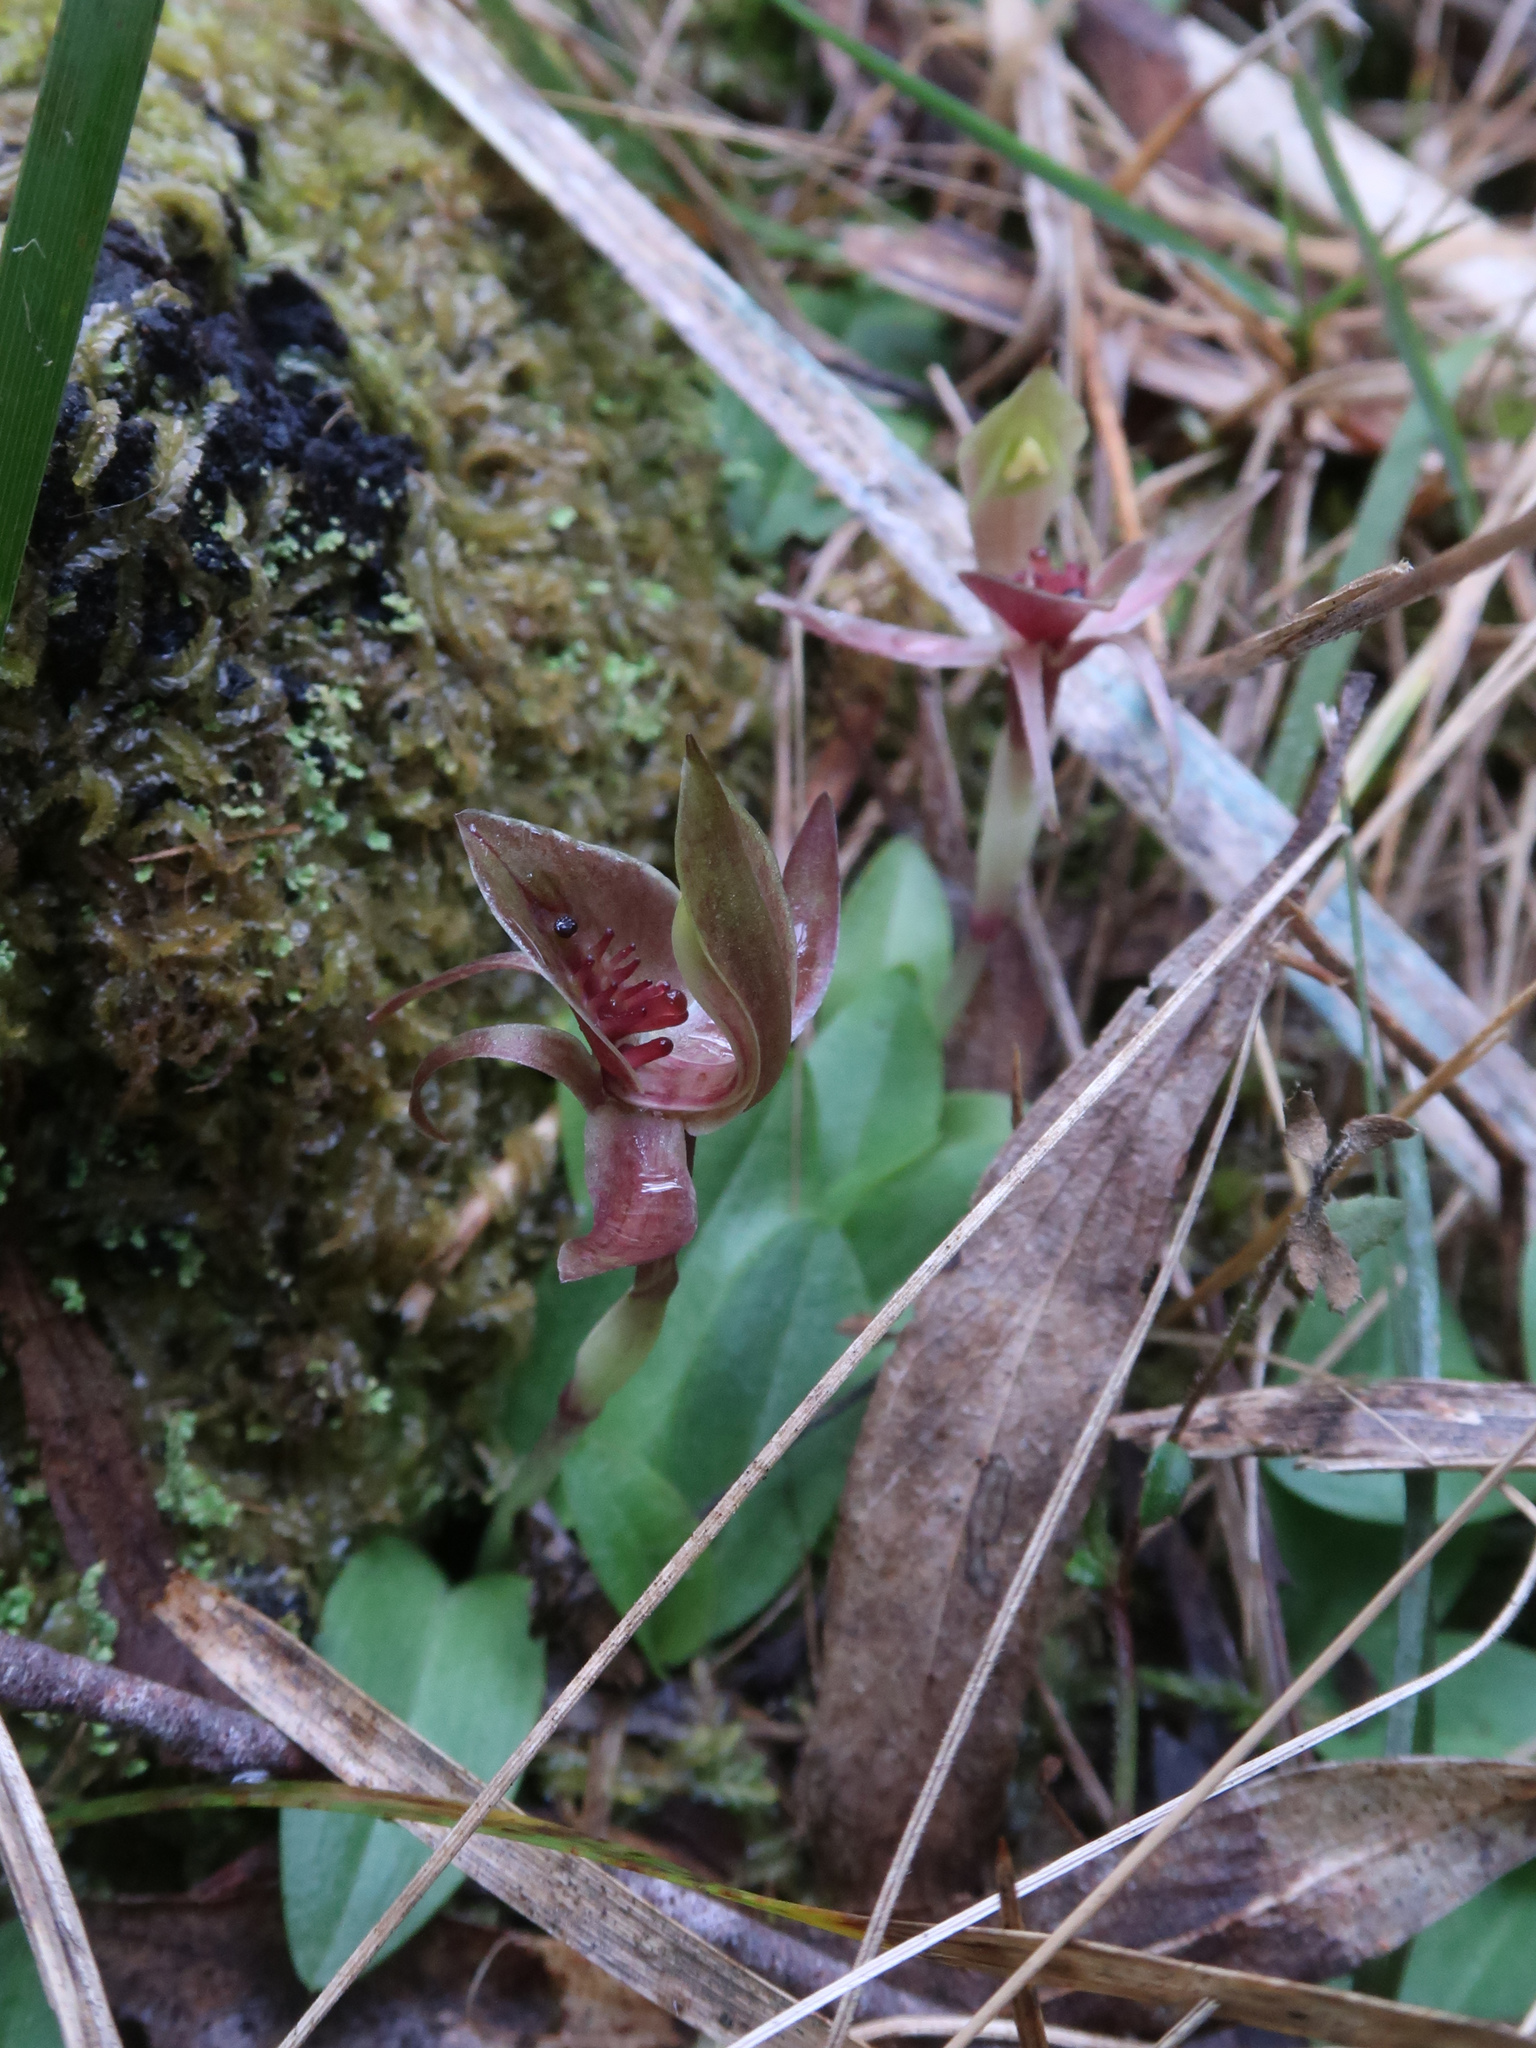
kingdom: Plantae
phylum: Tracheophyta
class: Liliopsida
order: Asparagales
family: Orchidaceae
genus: Chiloglottis
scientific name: Chiloglottis triceratops
